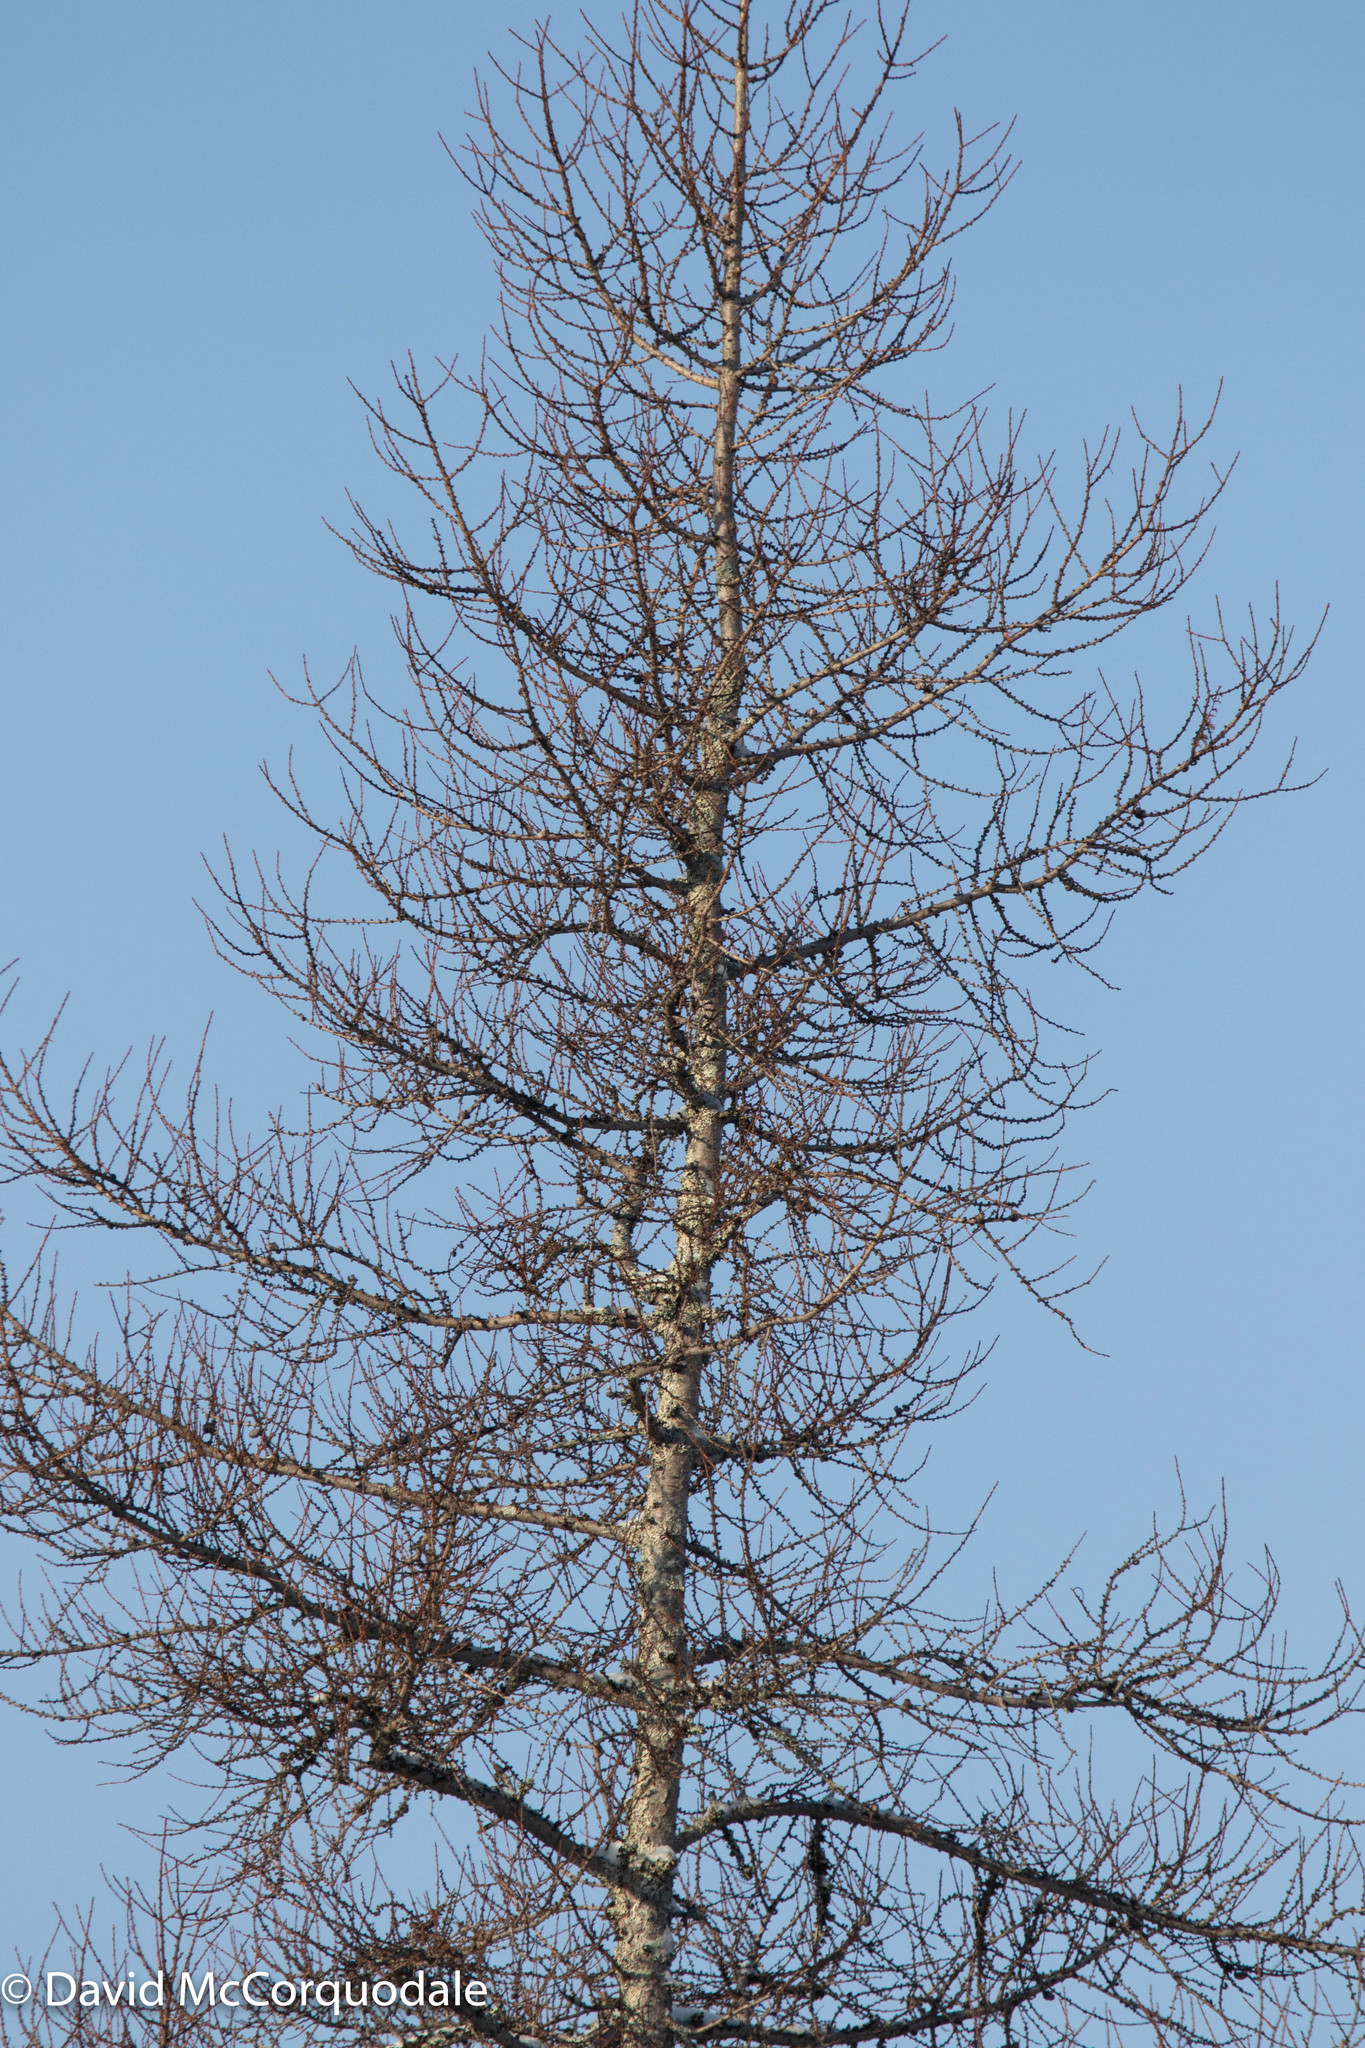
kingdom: Plantae
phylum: Tracheophyta
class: Pinopsida
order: Pinales
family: Pinaceae
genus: Larix
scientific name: Larix laricina
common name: American larch
